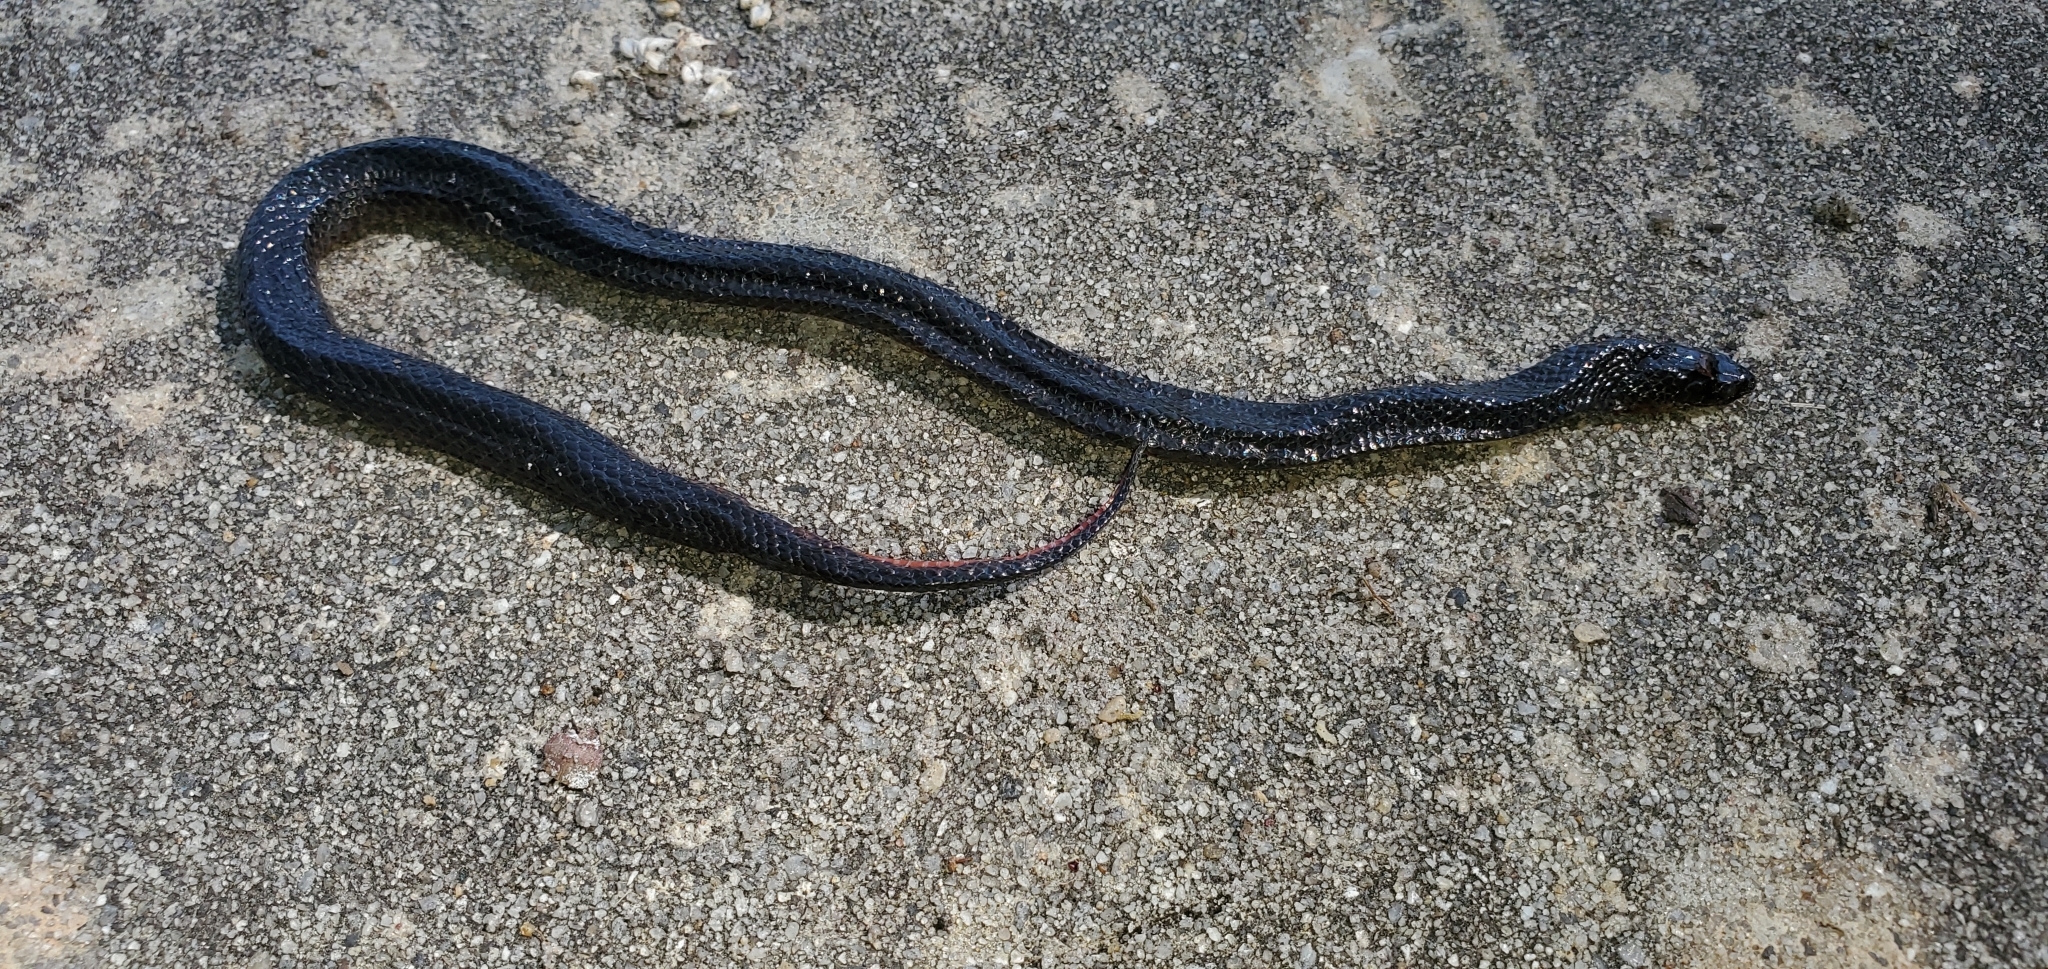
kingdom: Animalia
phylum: Chordata
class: Squamata
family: Colubridae
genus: Liodytes
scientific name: Liodytes pygaea
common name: Black swamp snake
